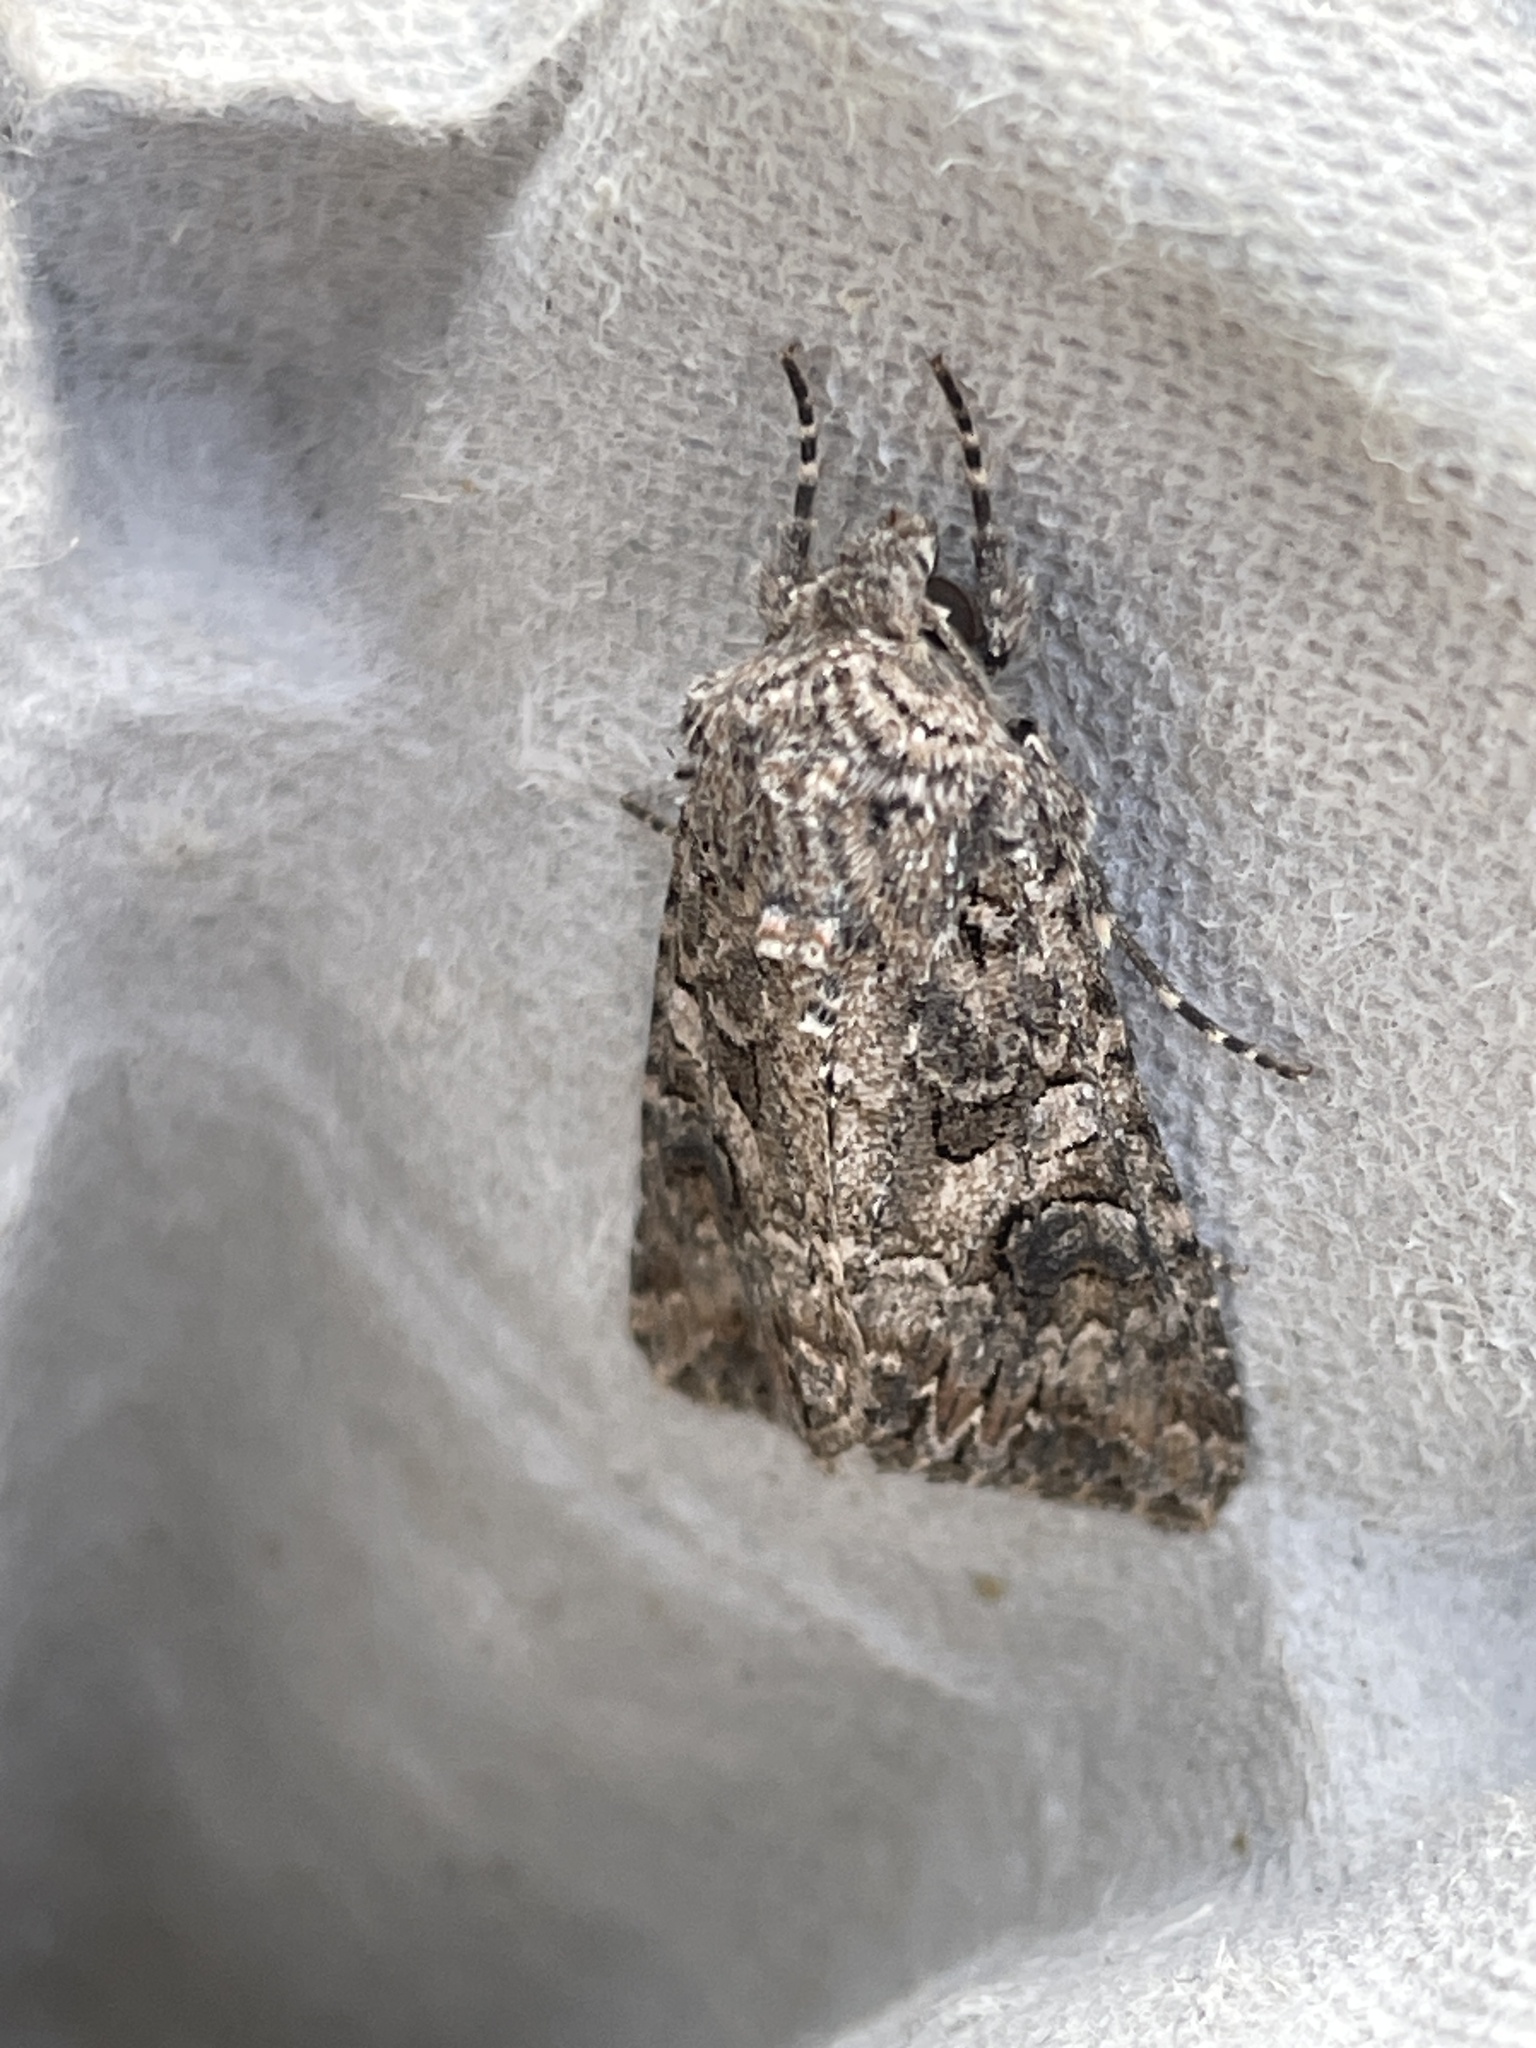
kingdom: Animalia
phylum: Arthropoda
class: Insecta
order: Lepidoptera
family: Noctuidae
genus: Anarta
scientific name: Anarta trifolii
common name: Clover cutworm moth
